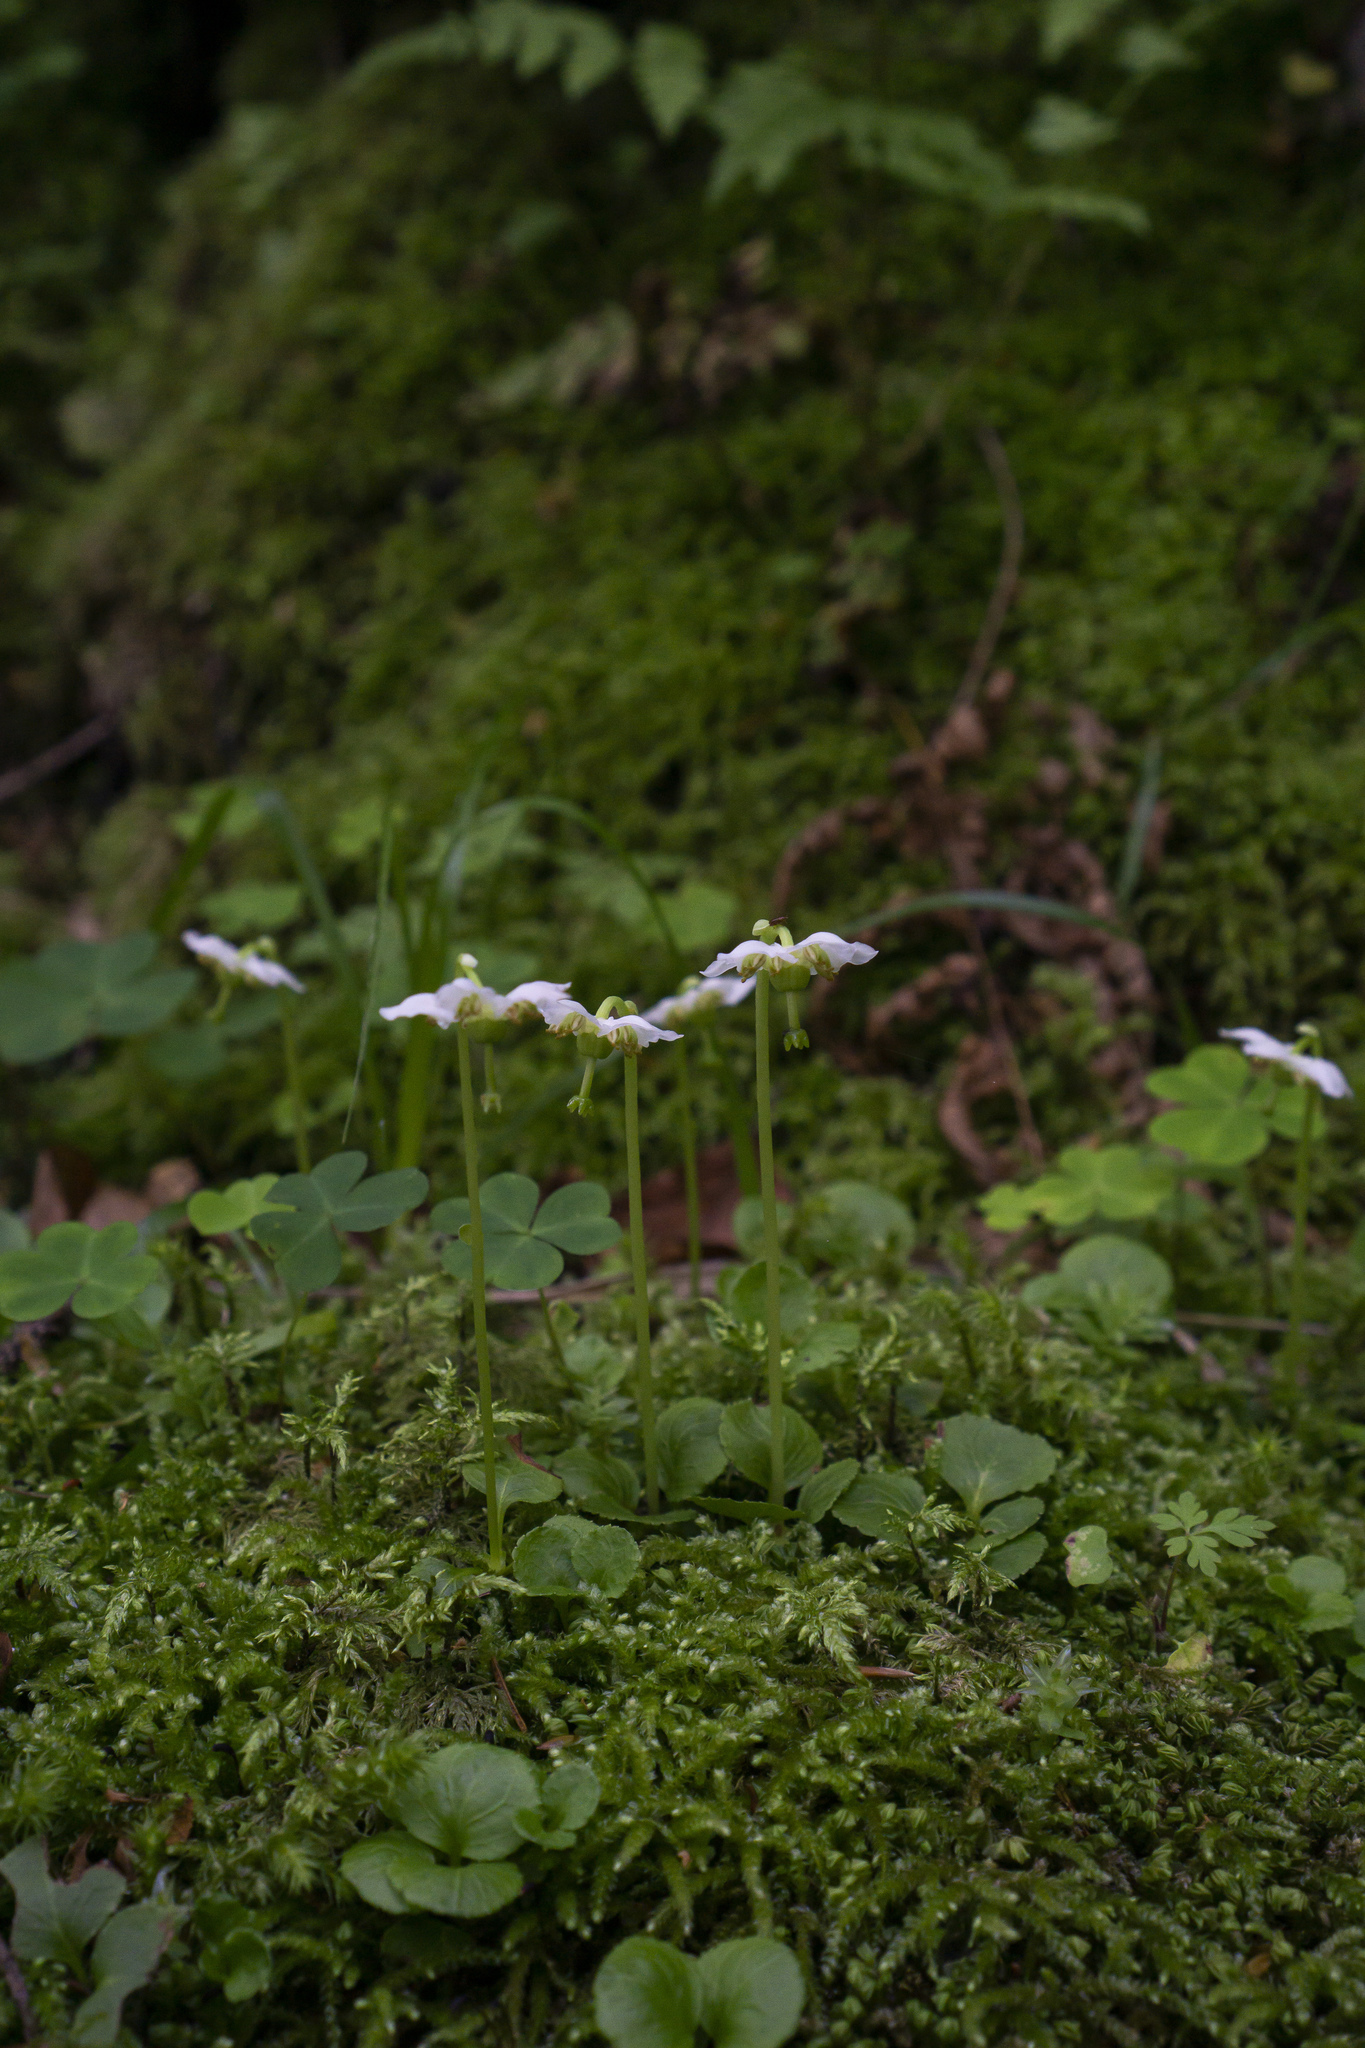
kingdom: Plantae
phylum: Tracheophyta
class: Magnoliopsida
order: Ericales
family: Ericaceae
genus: Moneses
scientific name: Moneses uniflora
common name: One-flowered wintergreen
